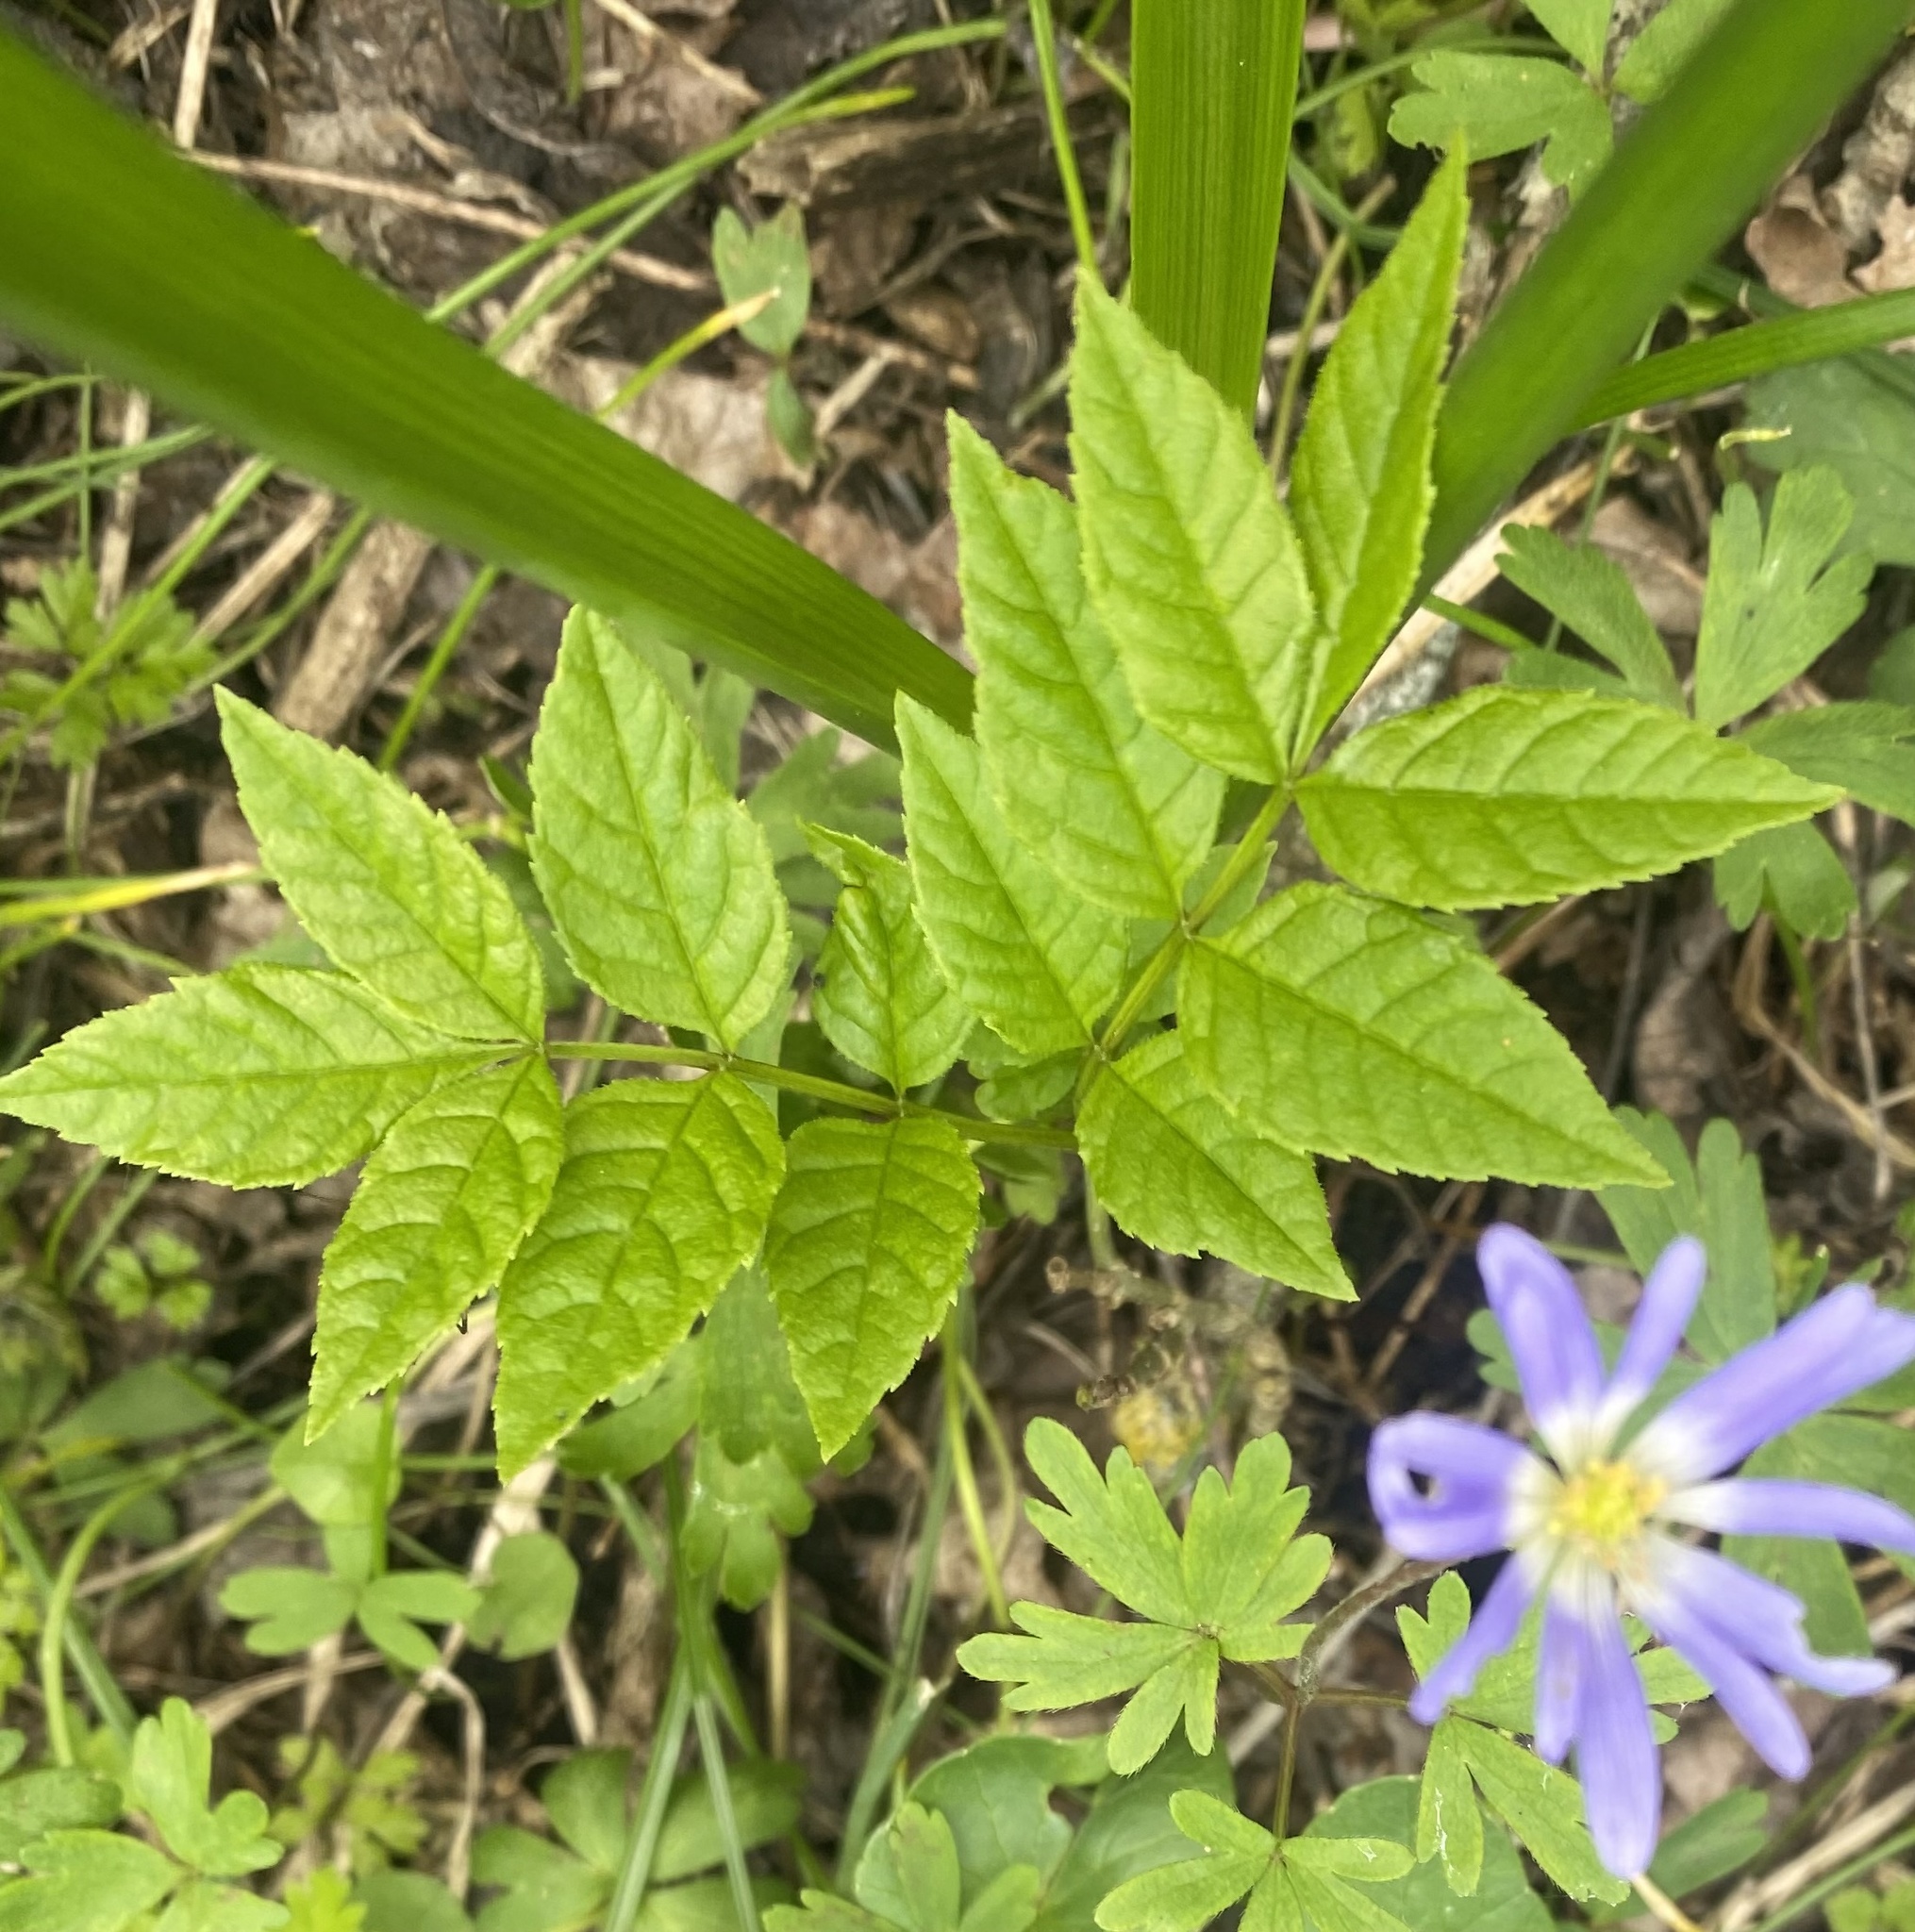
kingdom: Plantae
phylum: Tracheophyta
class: Magnoliopsida
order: Lamiales
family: Oleaceae
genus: Fraxinus
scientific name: Fraxinus angustifolia
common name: Narrow-leafed ash
